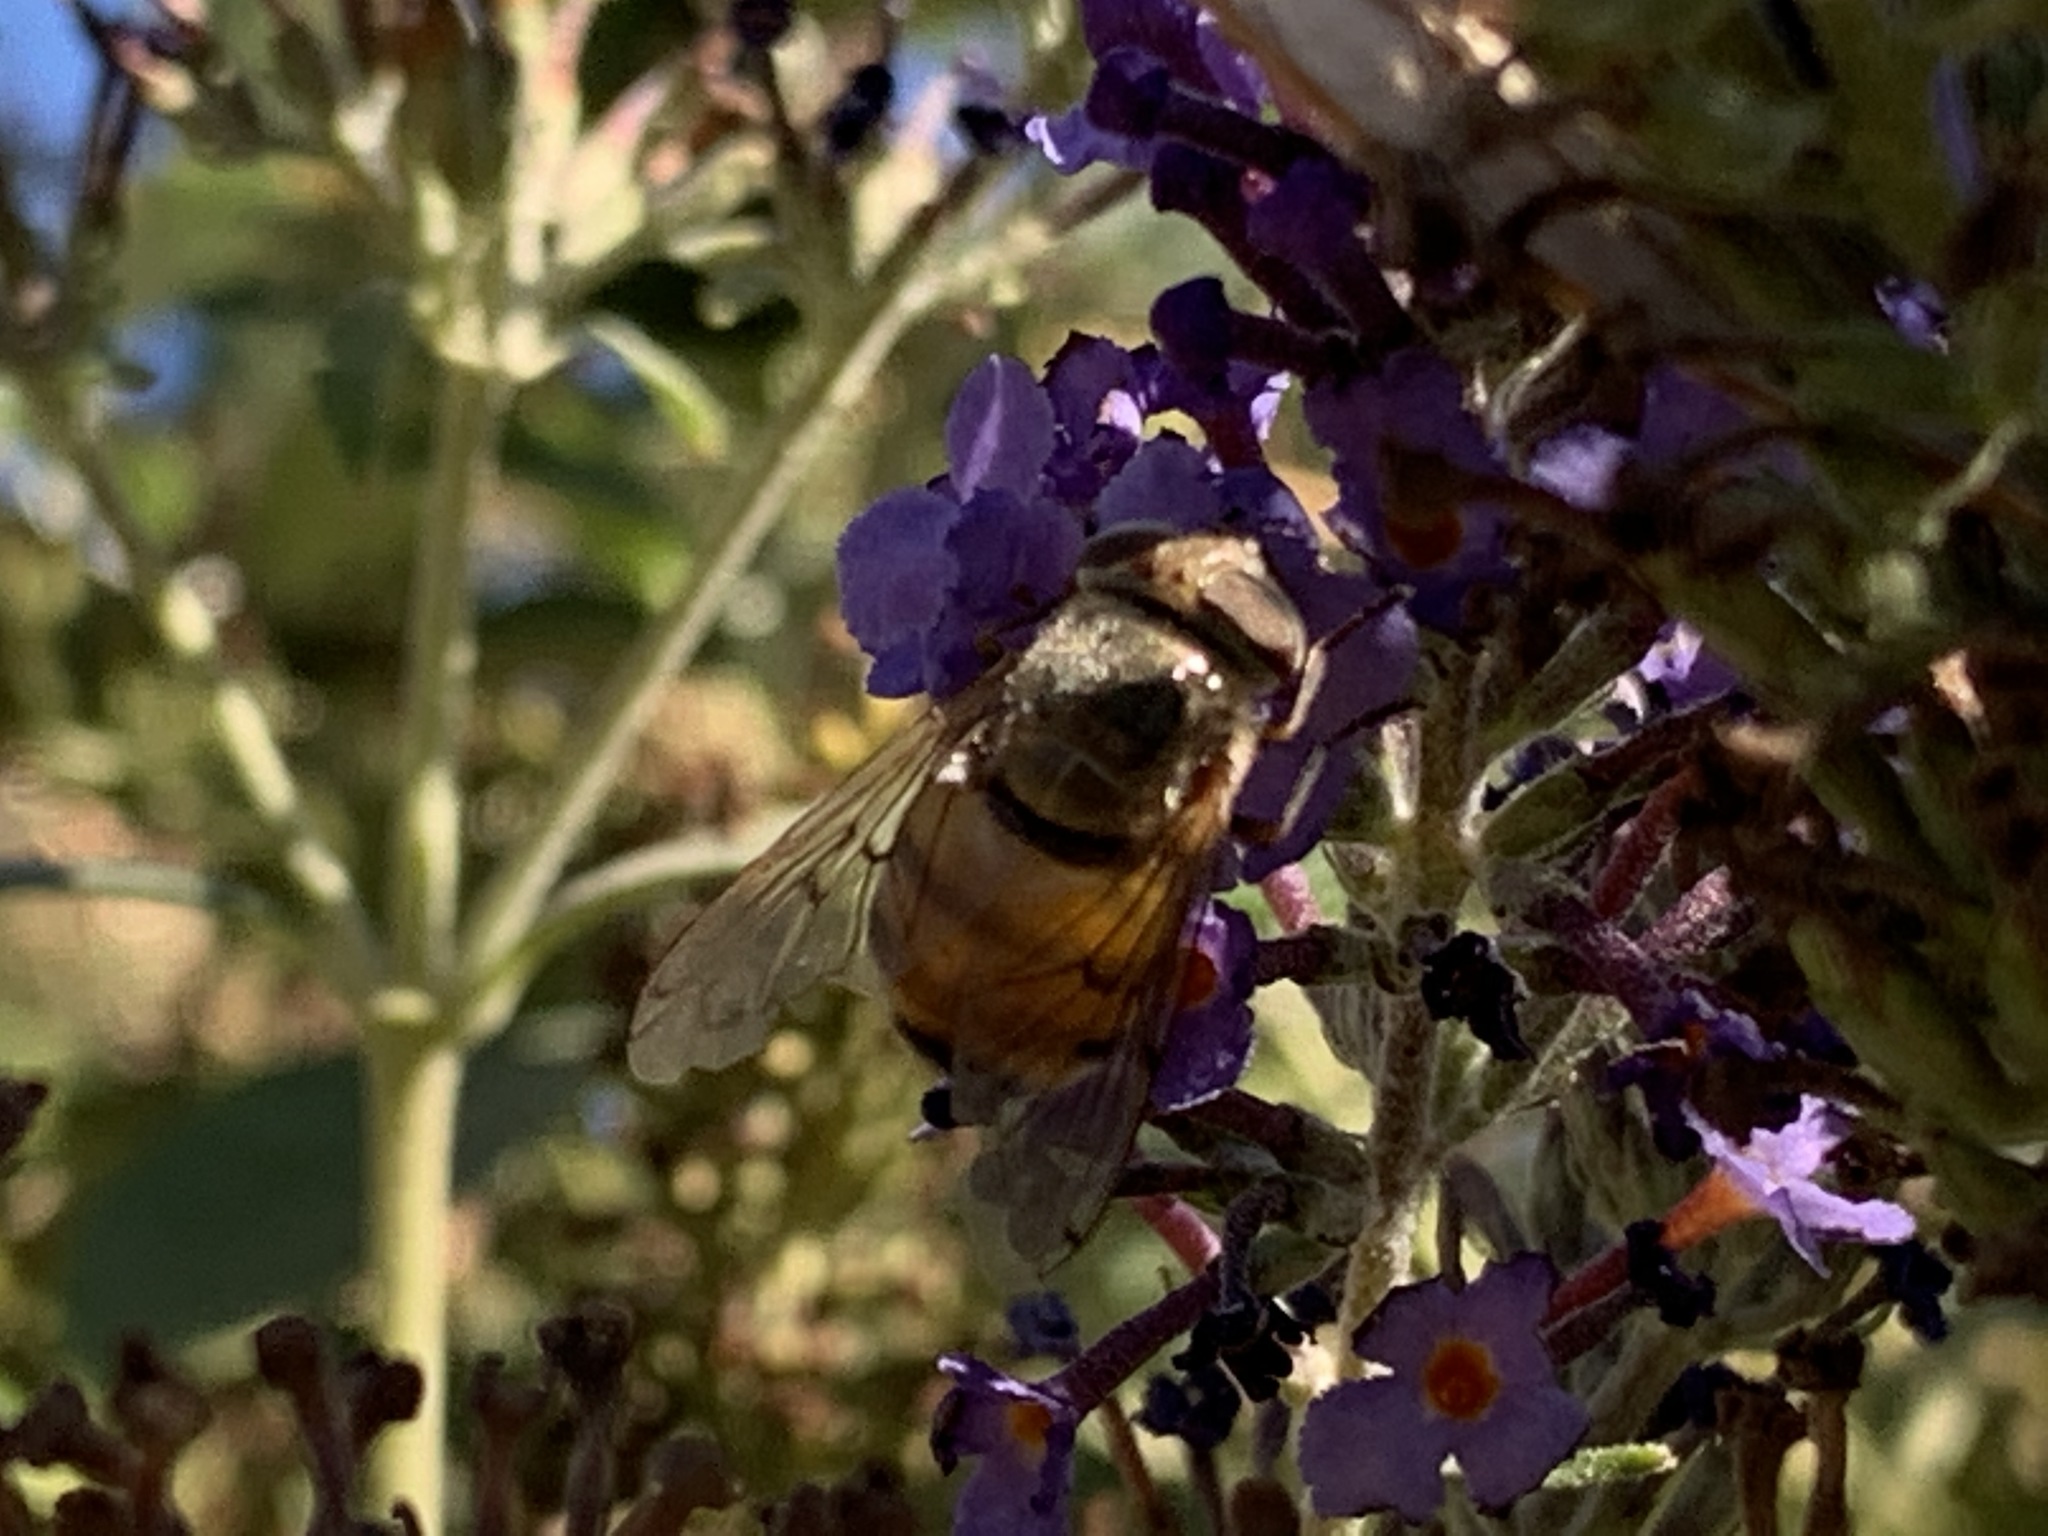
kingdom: Animalia
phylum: Arthropoda
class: Insecta
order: Diptera
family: Syrphidae
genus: Copestylum
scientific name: Copestylum haagii
